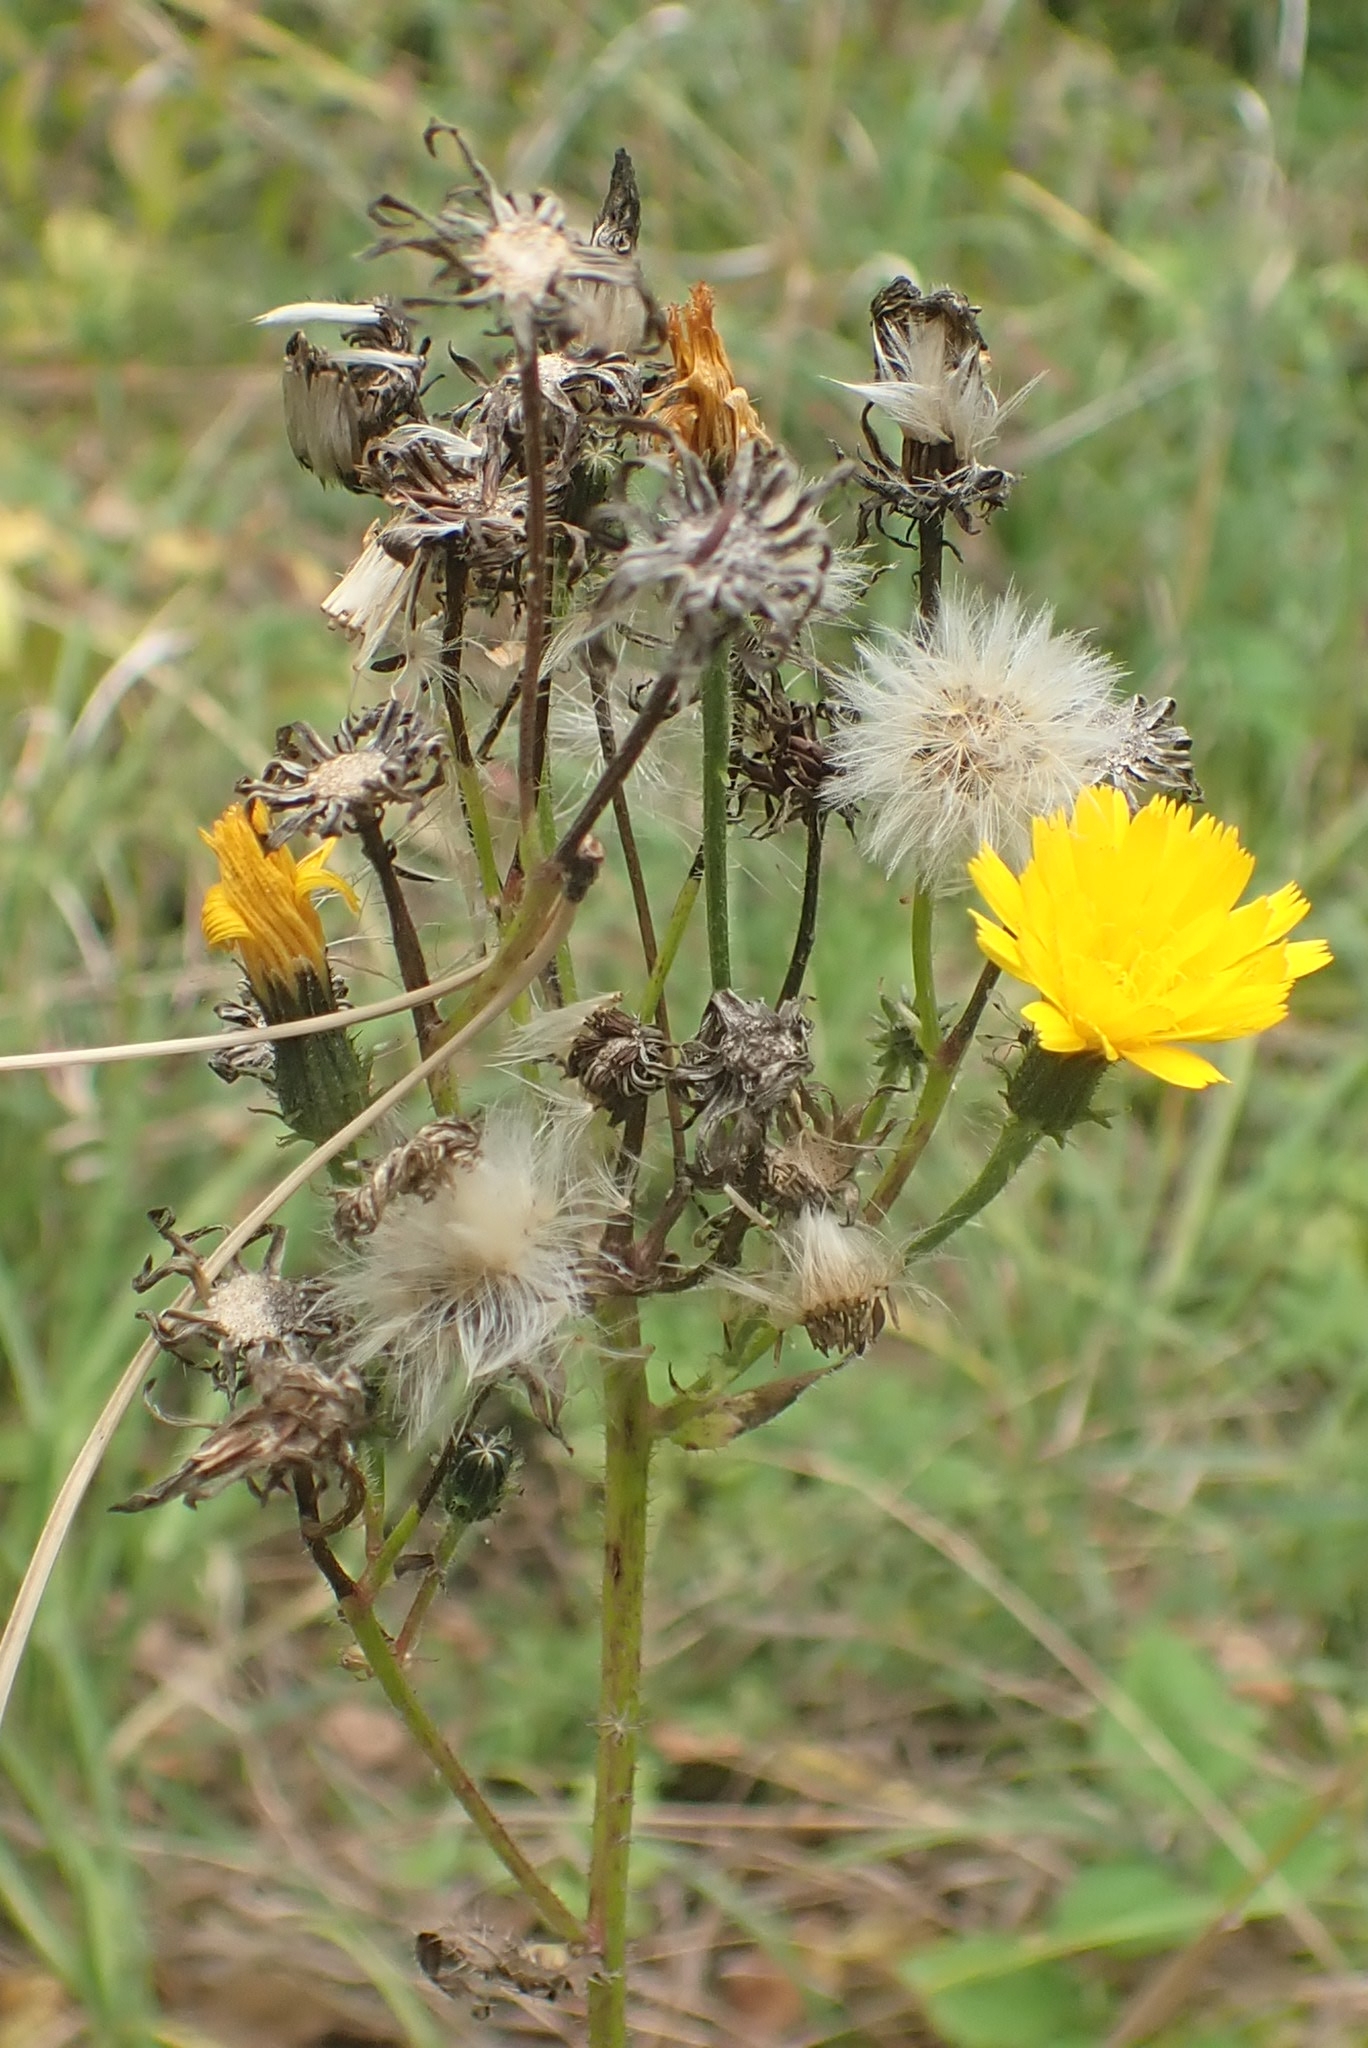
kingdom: Plantae
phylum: Tracheophyta
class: Magnoliopsida
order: Asterales
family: Asteraceae
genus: Picris
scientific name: Picris hieracioides
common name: Hawkweed oxtongue
